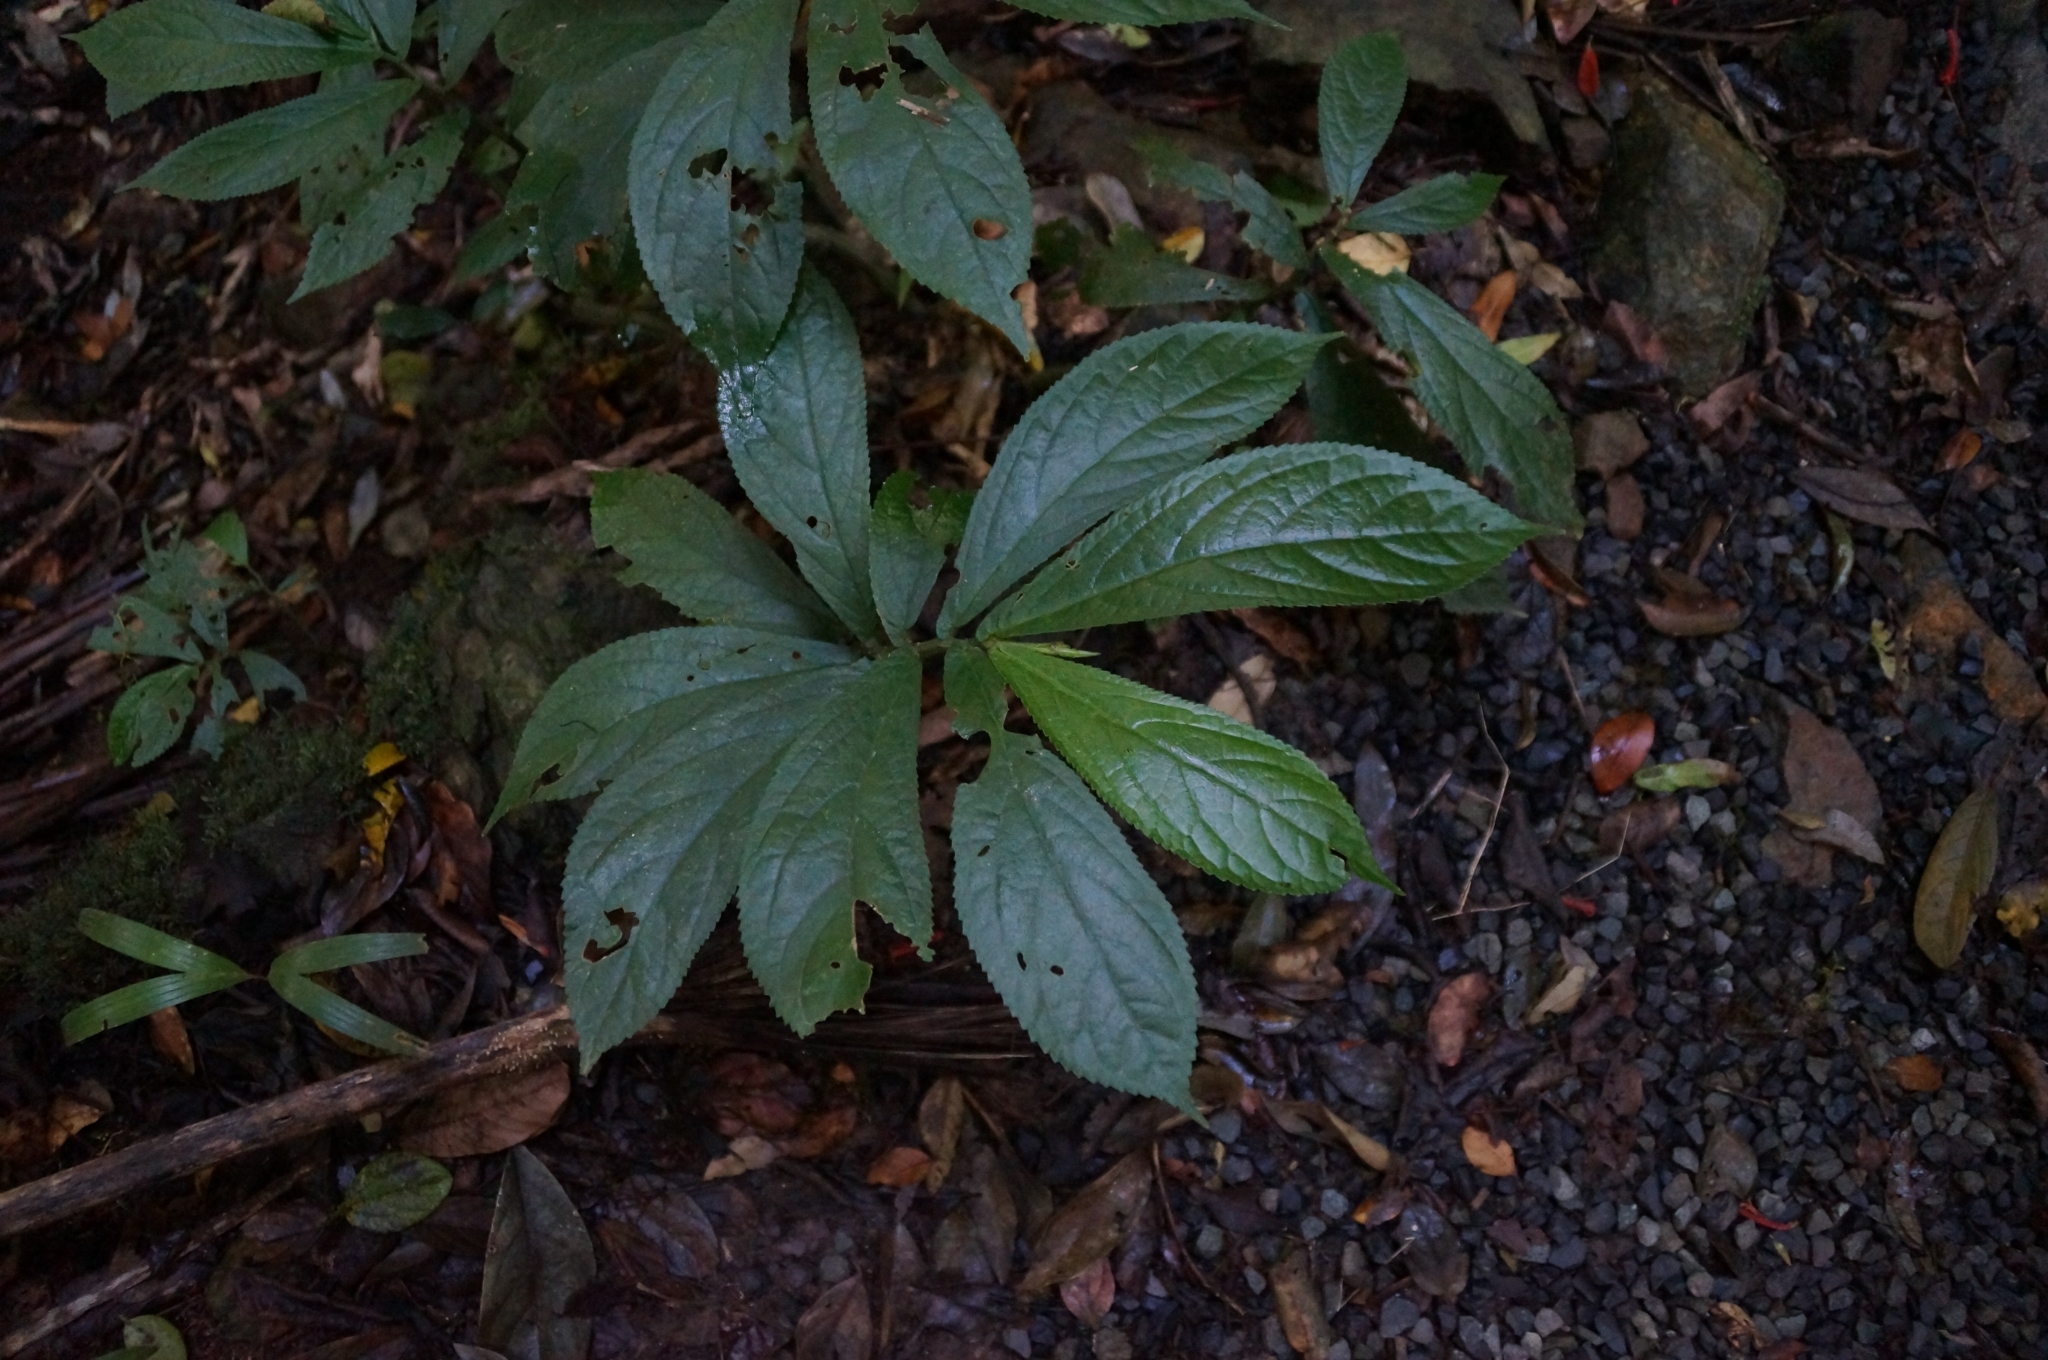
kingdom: Plantae
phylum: Tracheophyta
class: Magnoliopsida
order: Rosales
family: Urticaceae
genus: Elatostema
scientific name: Elatostema reticulatum
